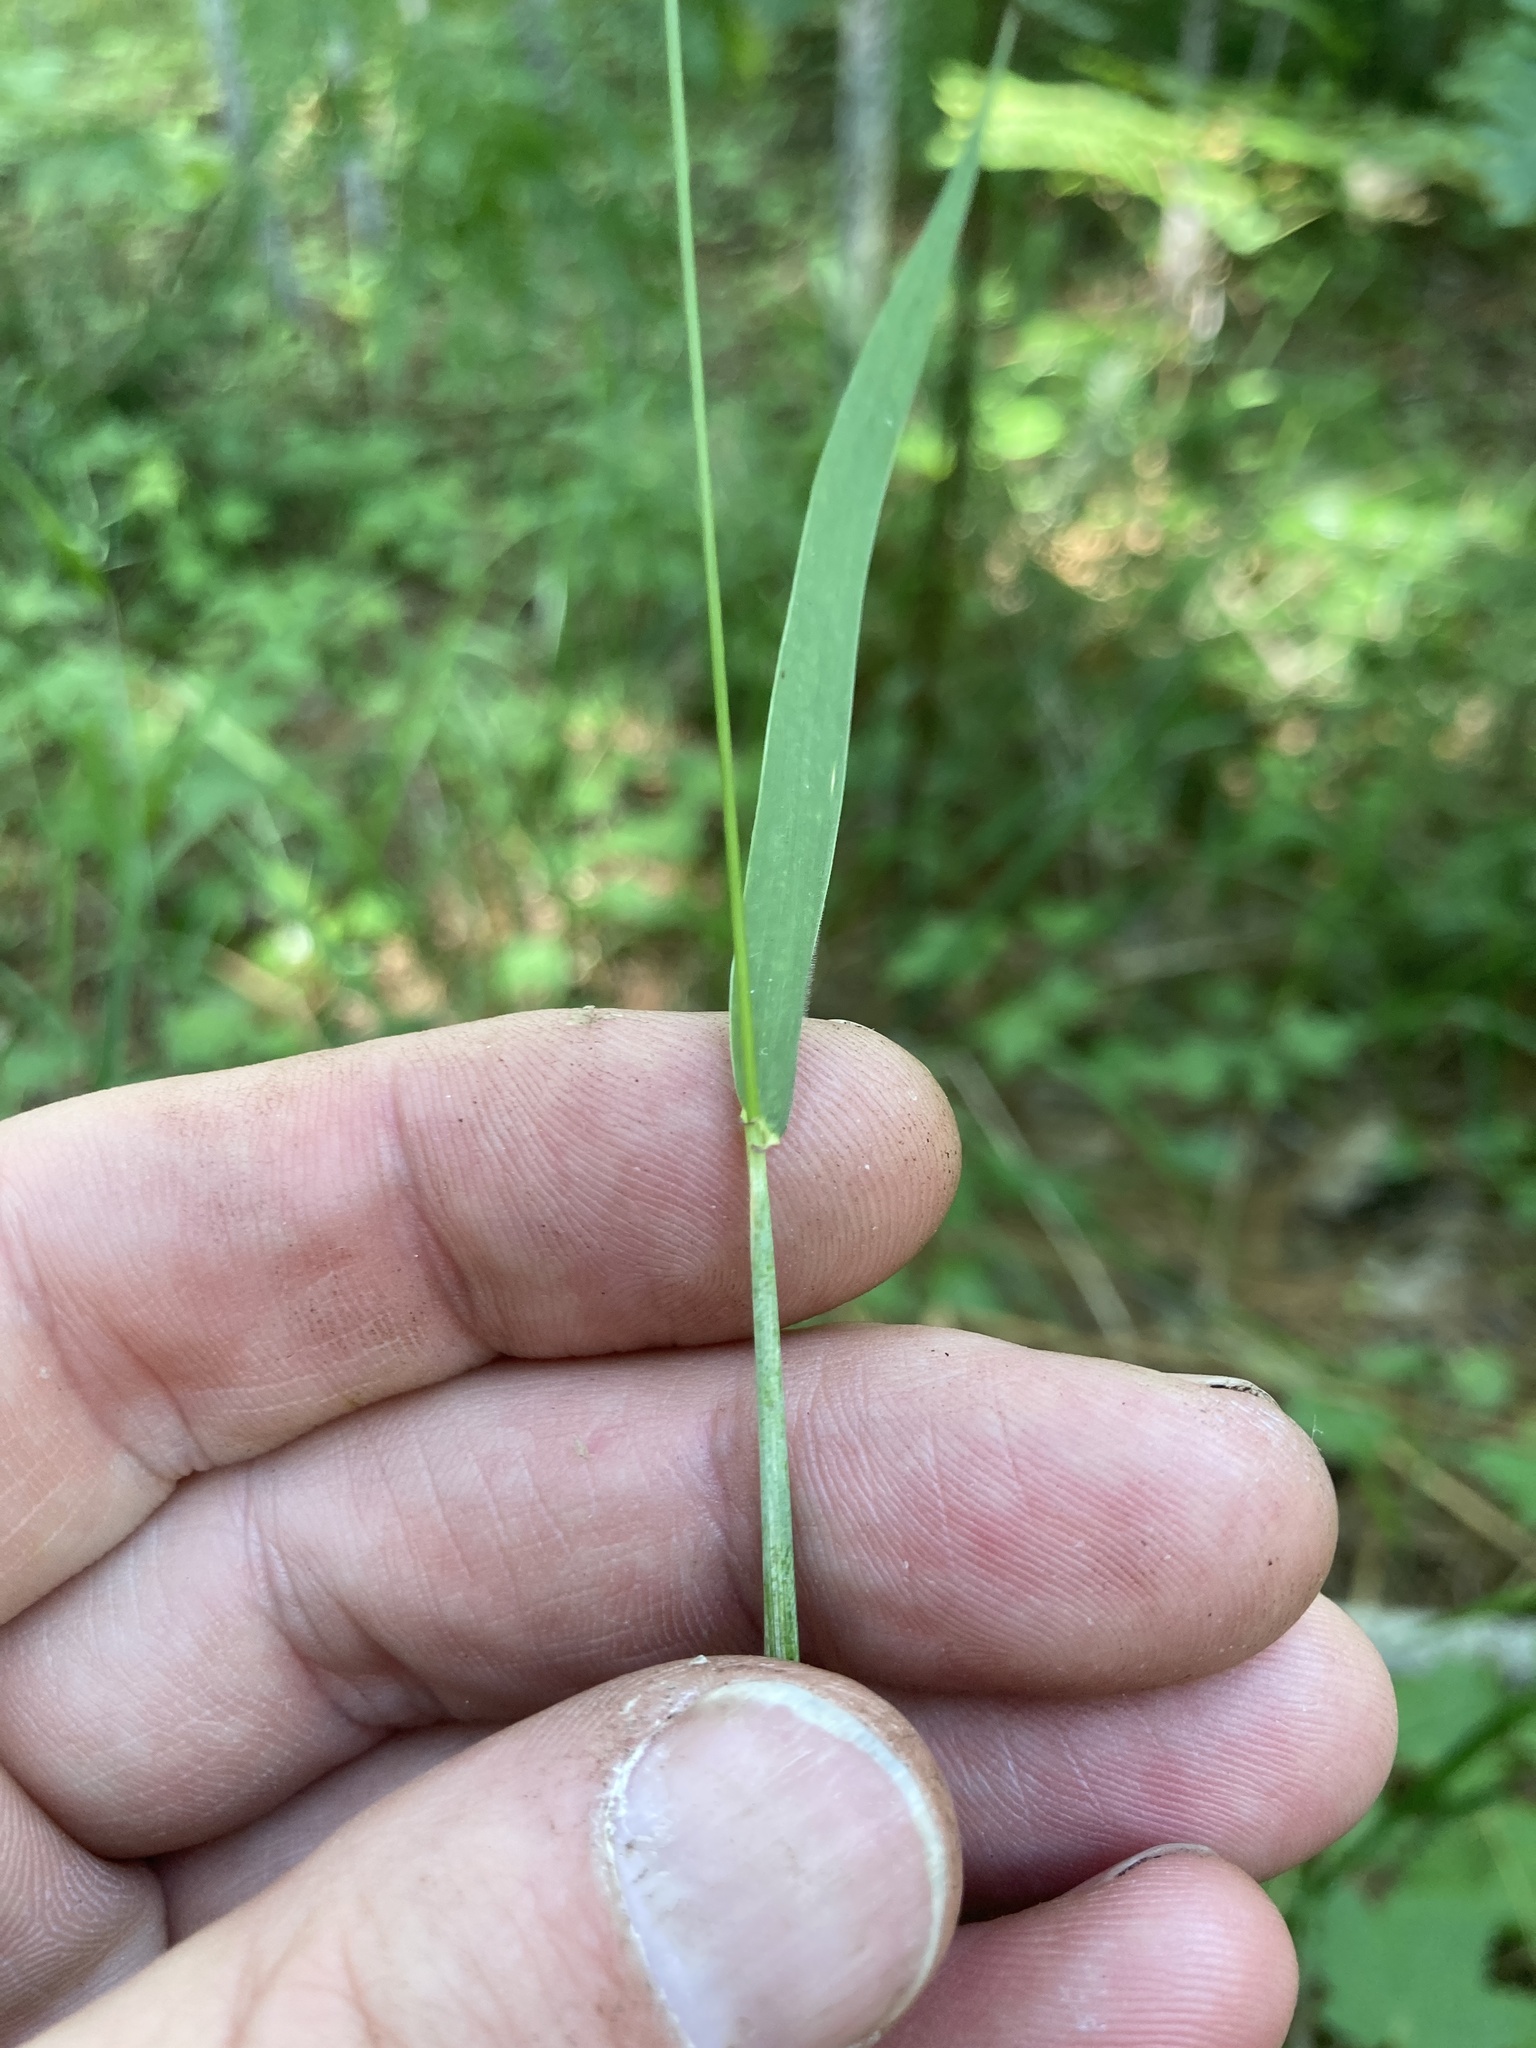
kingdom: Plantae
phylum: Tracheophyta
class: Liliopsida
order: Poales
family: Poaceae
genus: Elymus
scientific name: Elymus hystrix
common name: Bottlebrush grass
